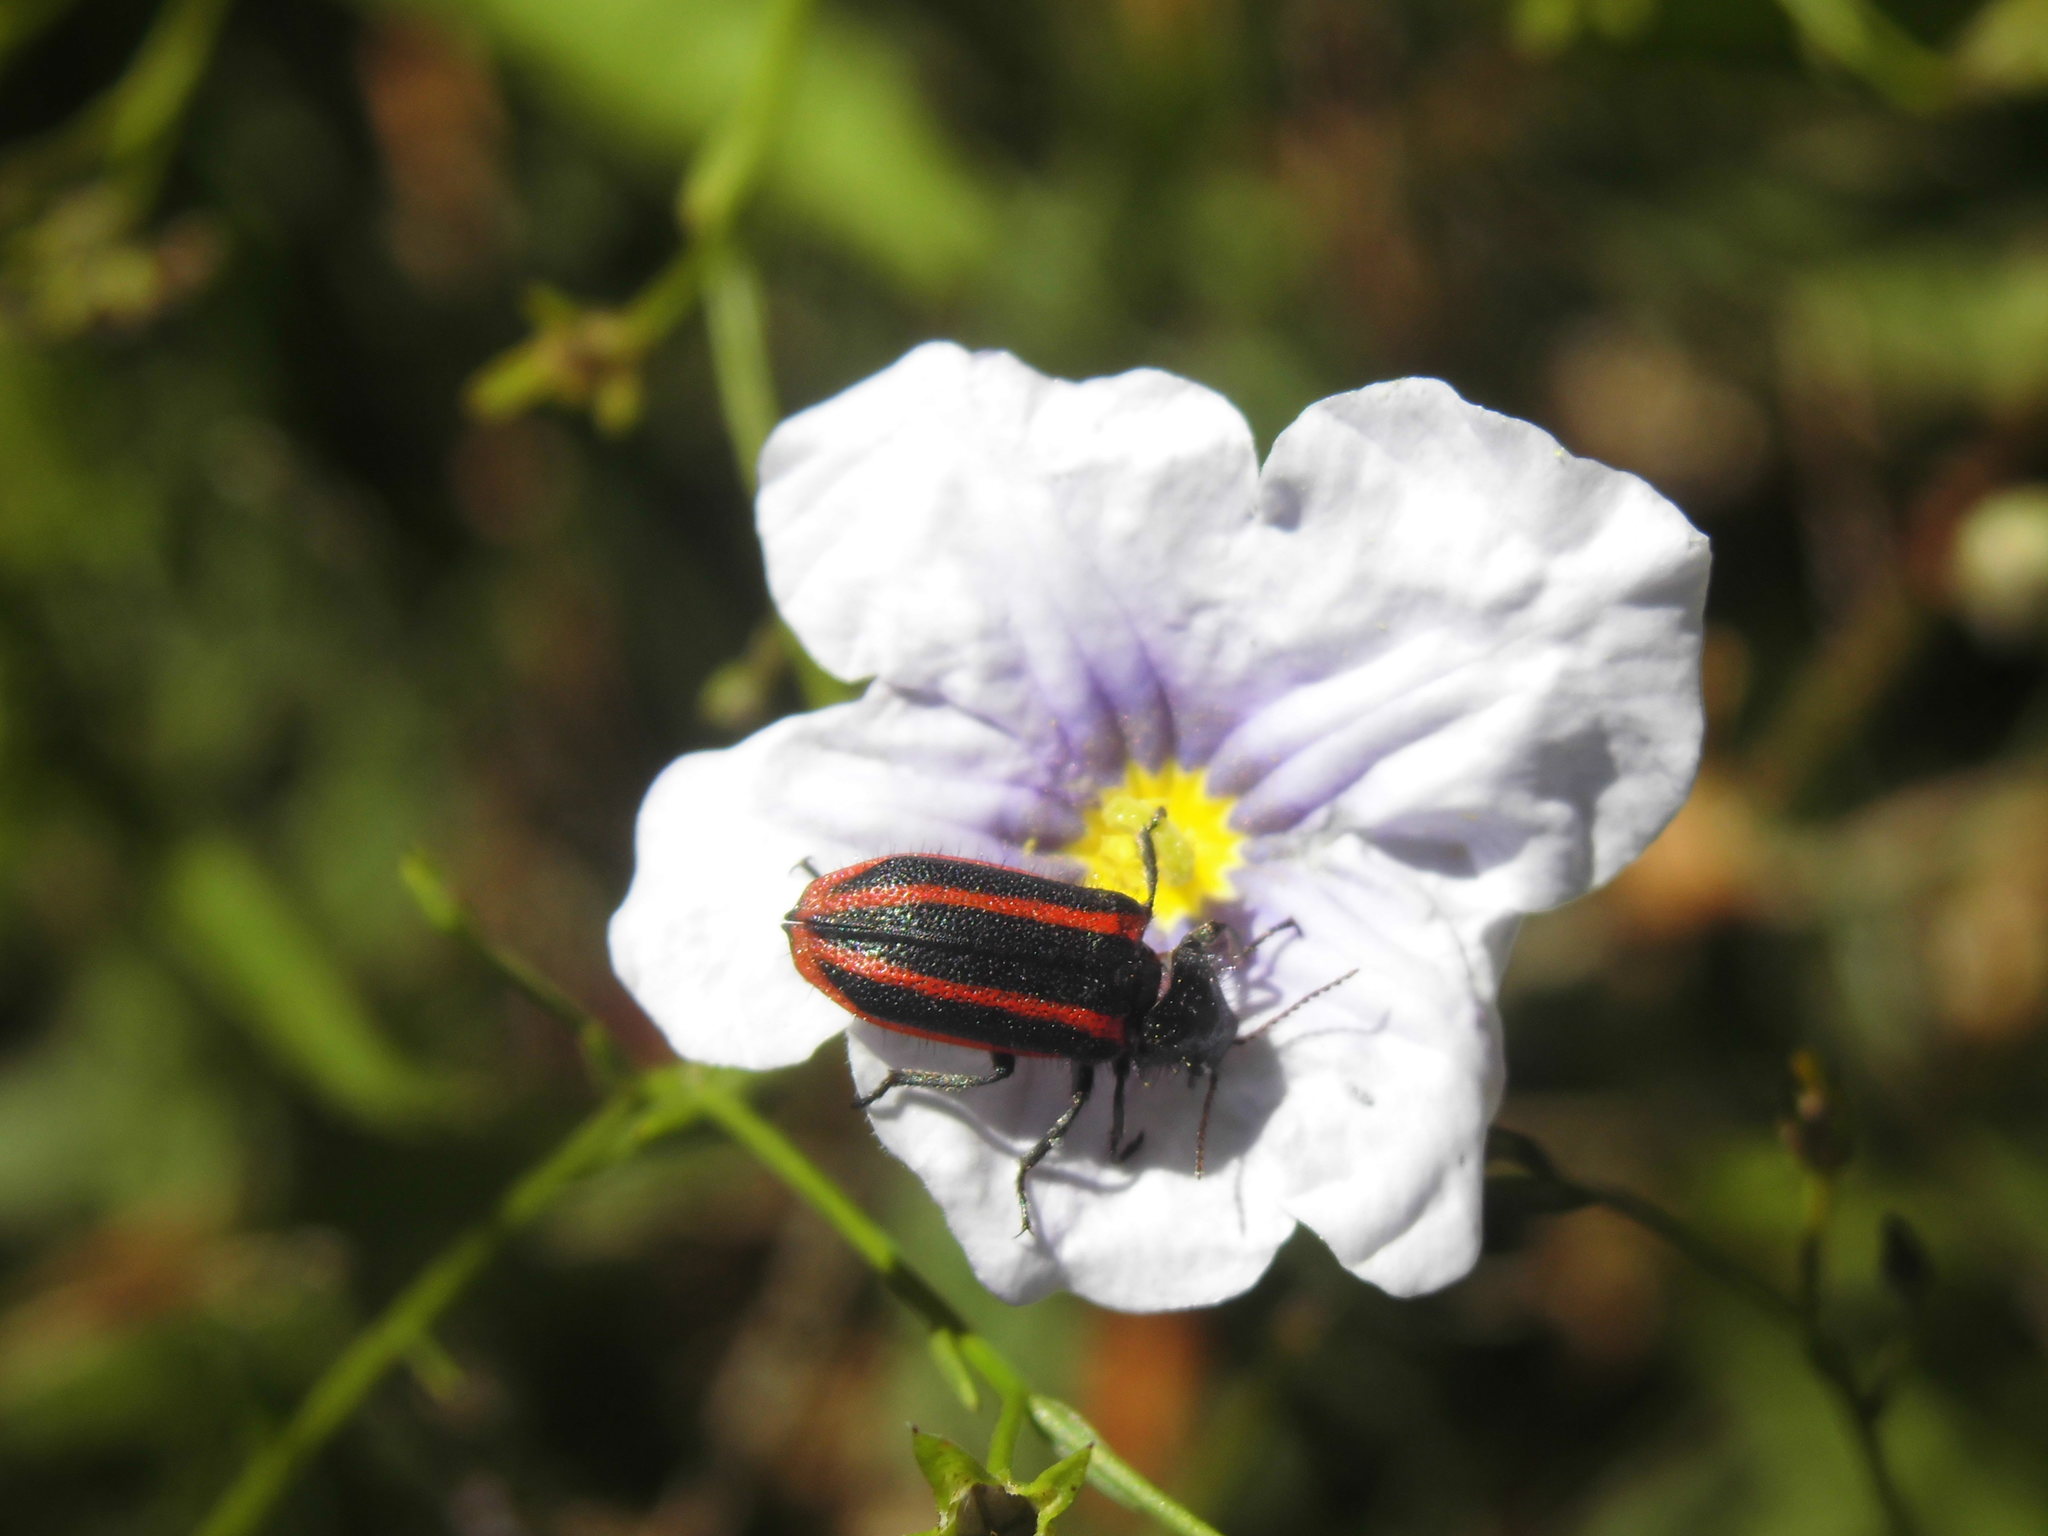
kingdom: Animalia
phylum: Arthropoda
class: Insecta
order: Coleoptera
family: Melyridae
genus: Astylus
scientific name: Astylus
